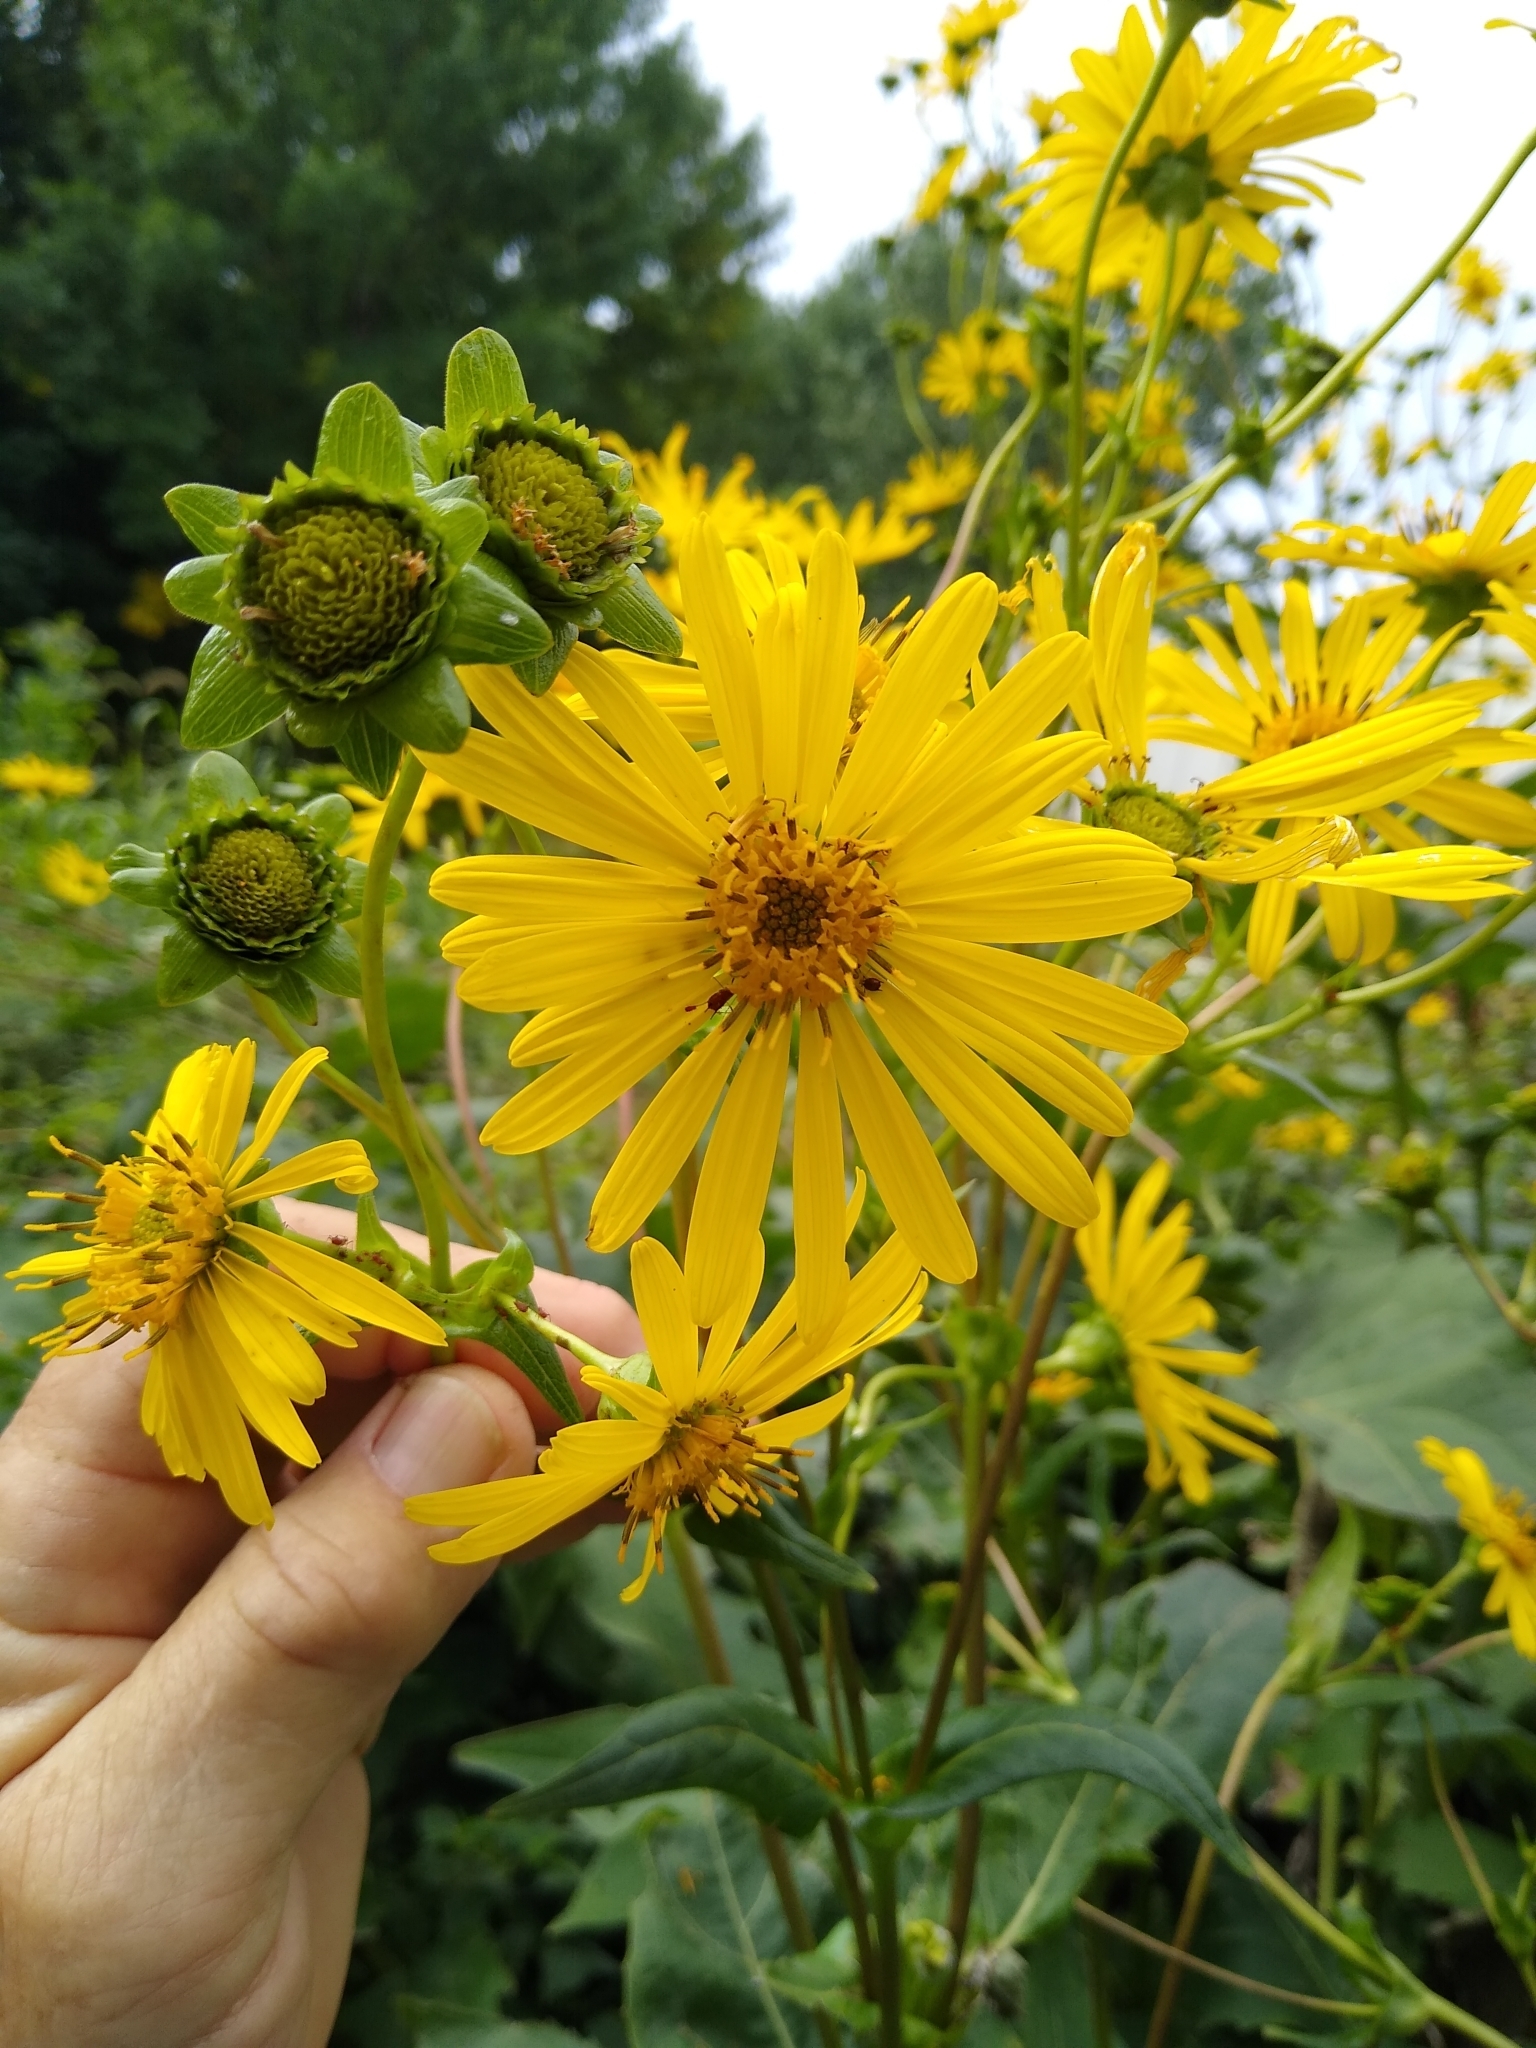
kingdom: Plantae
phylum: Tracheophyta
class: Magnoliopsida
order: Asterales
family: Asteraceae
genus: Silphium
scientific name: Silphium perfoliatum
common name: Cup-plant
